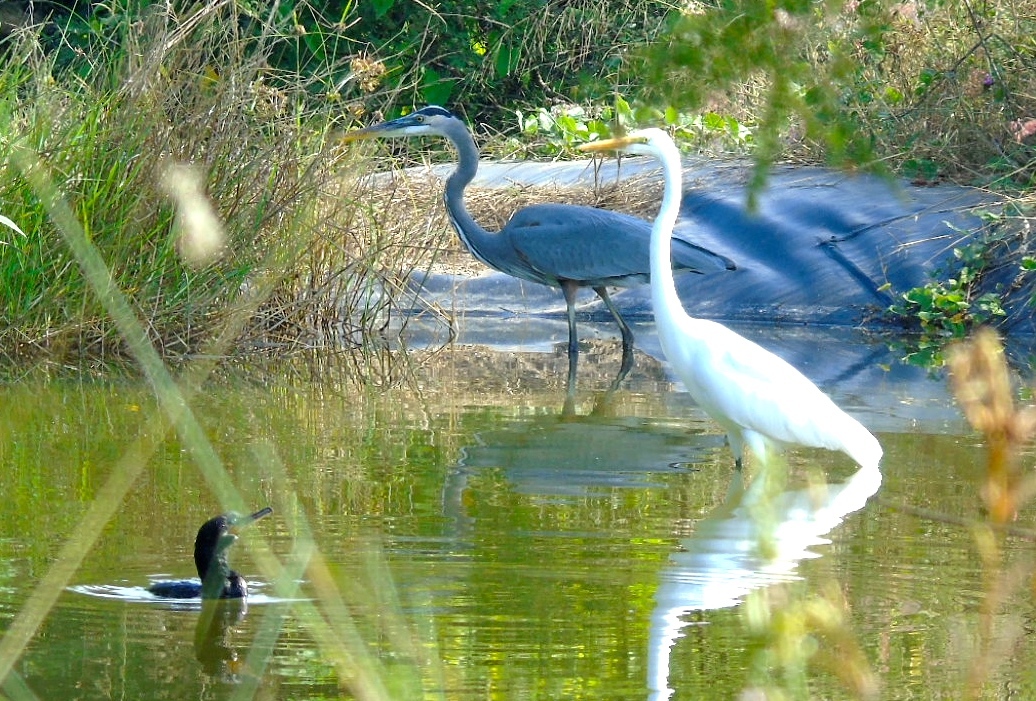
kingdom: Animalia
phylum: Chordata
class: Aves
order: Pelecaniformes
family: Ardeidae
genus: Ardea
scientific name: Ardea herodias
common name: Great blue heron
